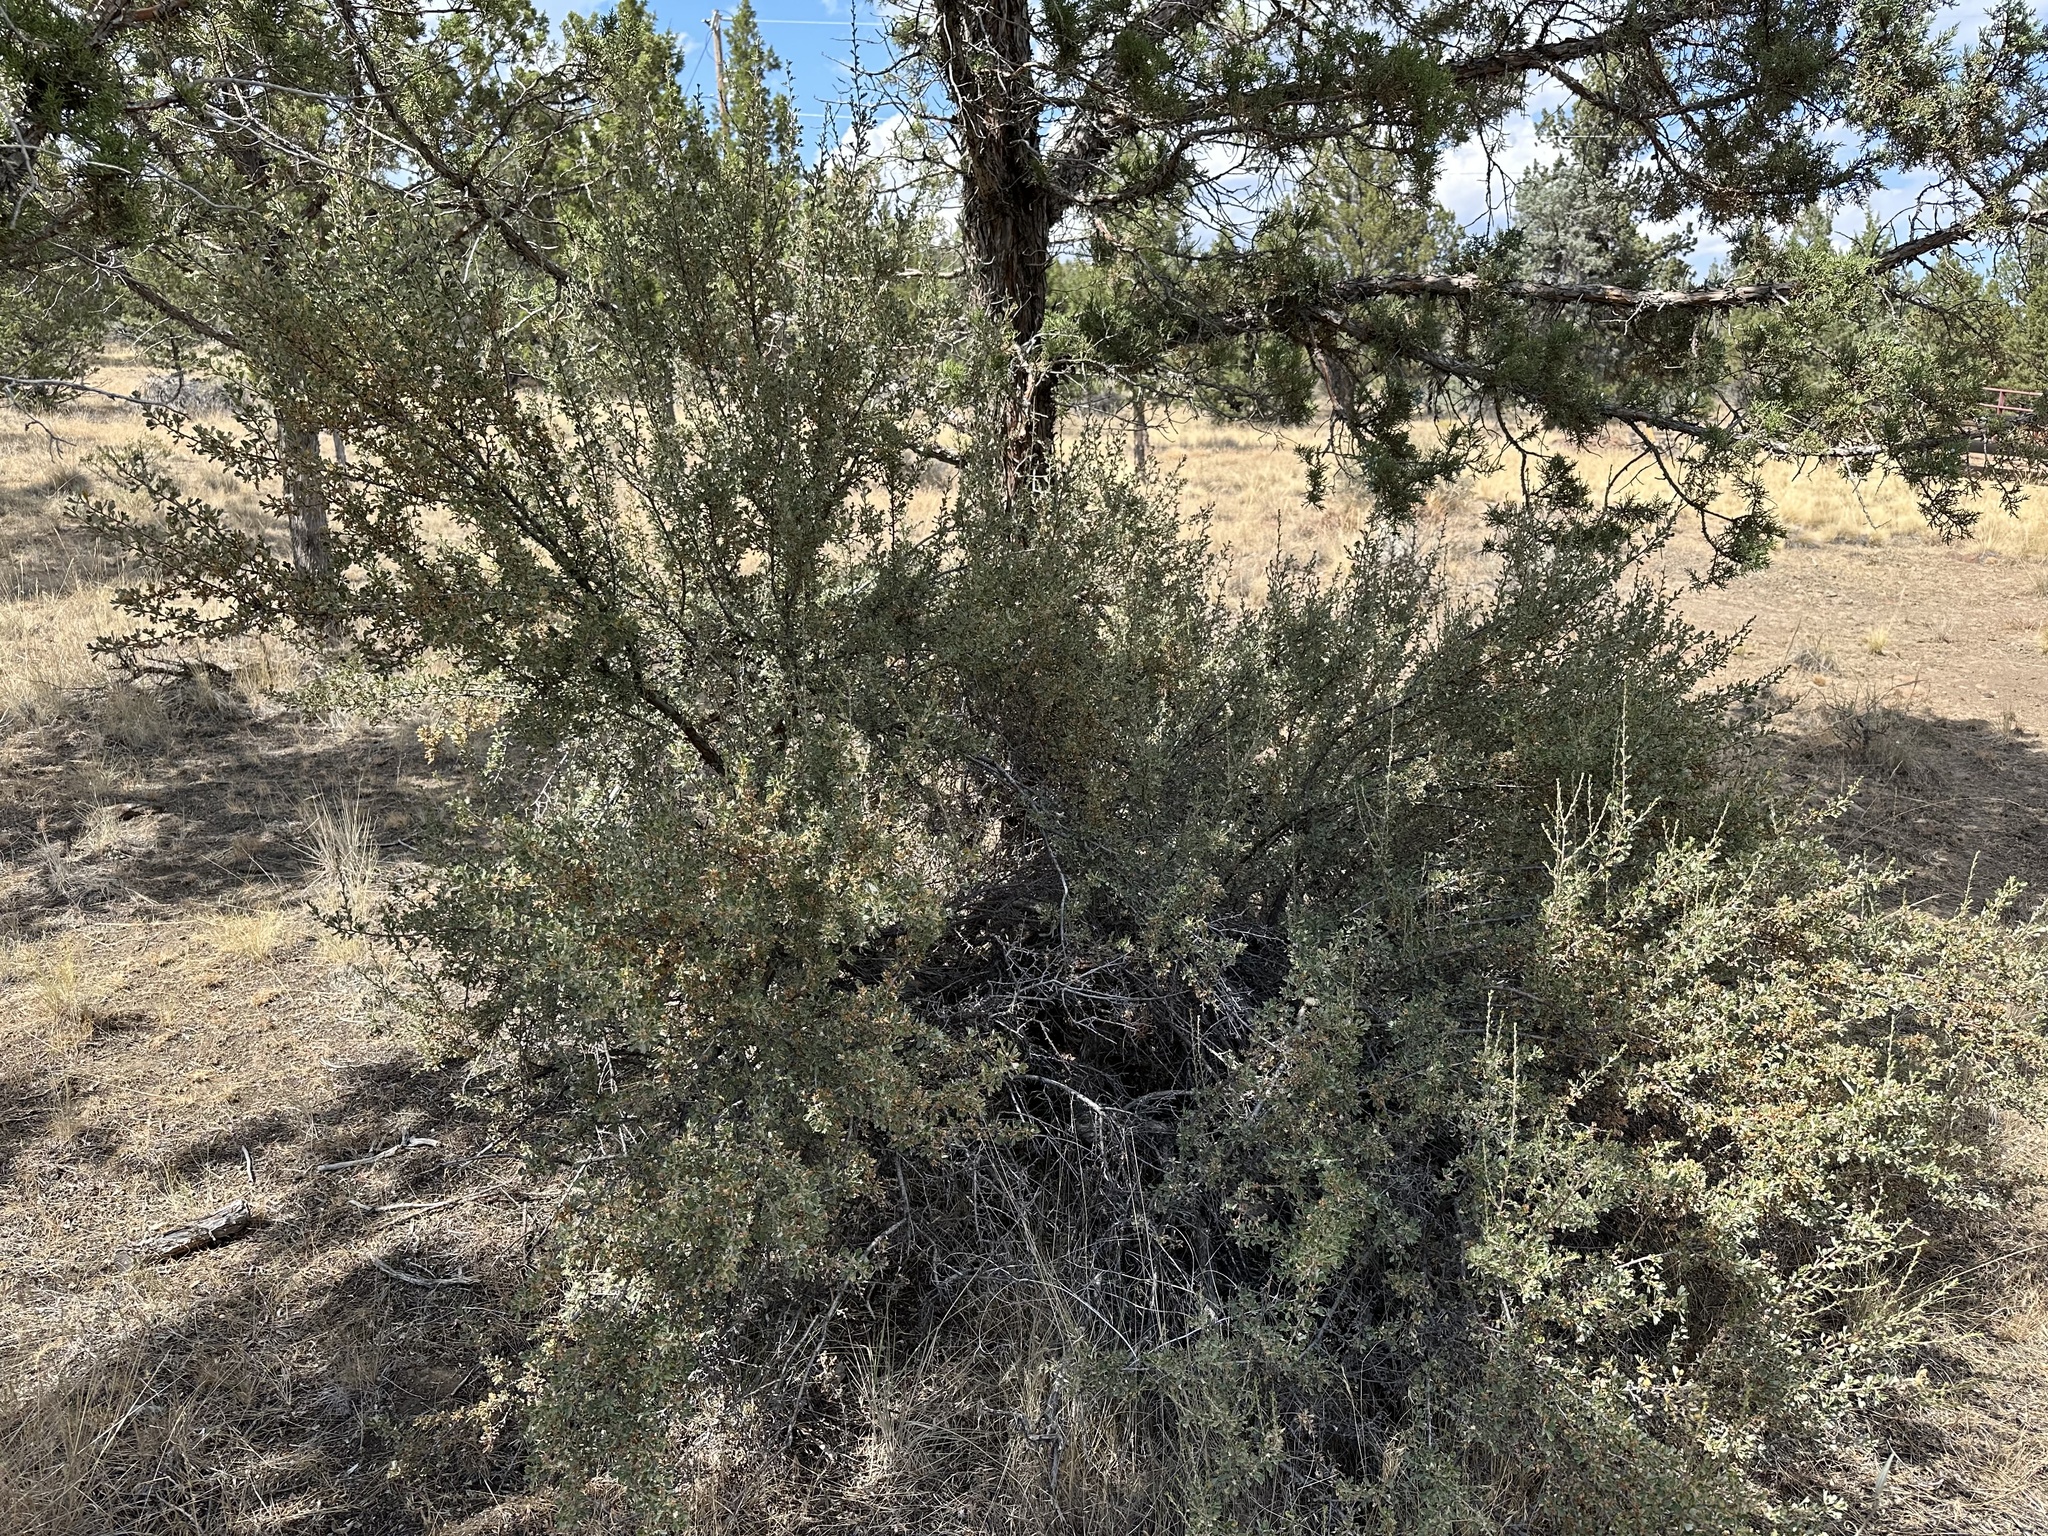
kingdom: Plantae
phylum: Tracheophyta
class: Magnoliopsida
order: Rosales
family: Rosaceae
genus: Purshia
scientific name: Purshia tridentata
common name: Antelope bitterbrush
